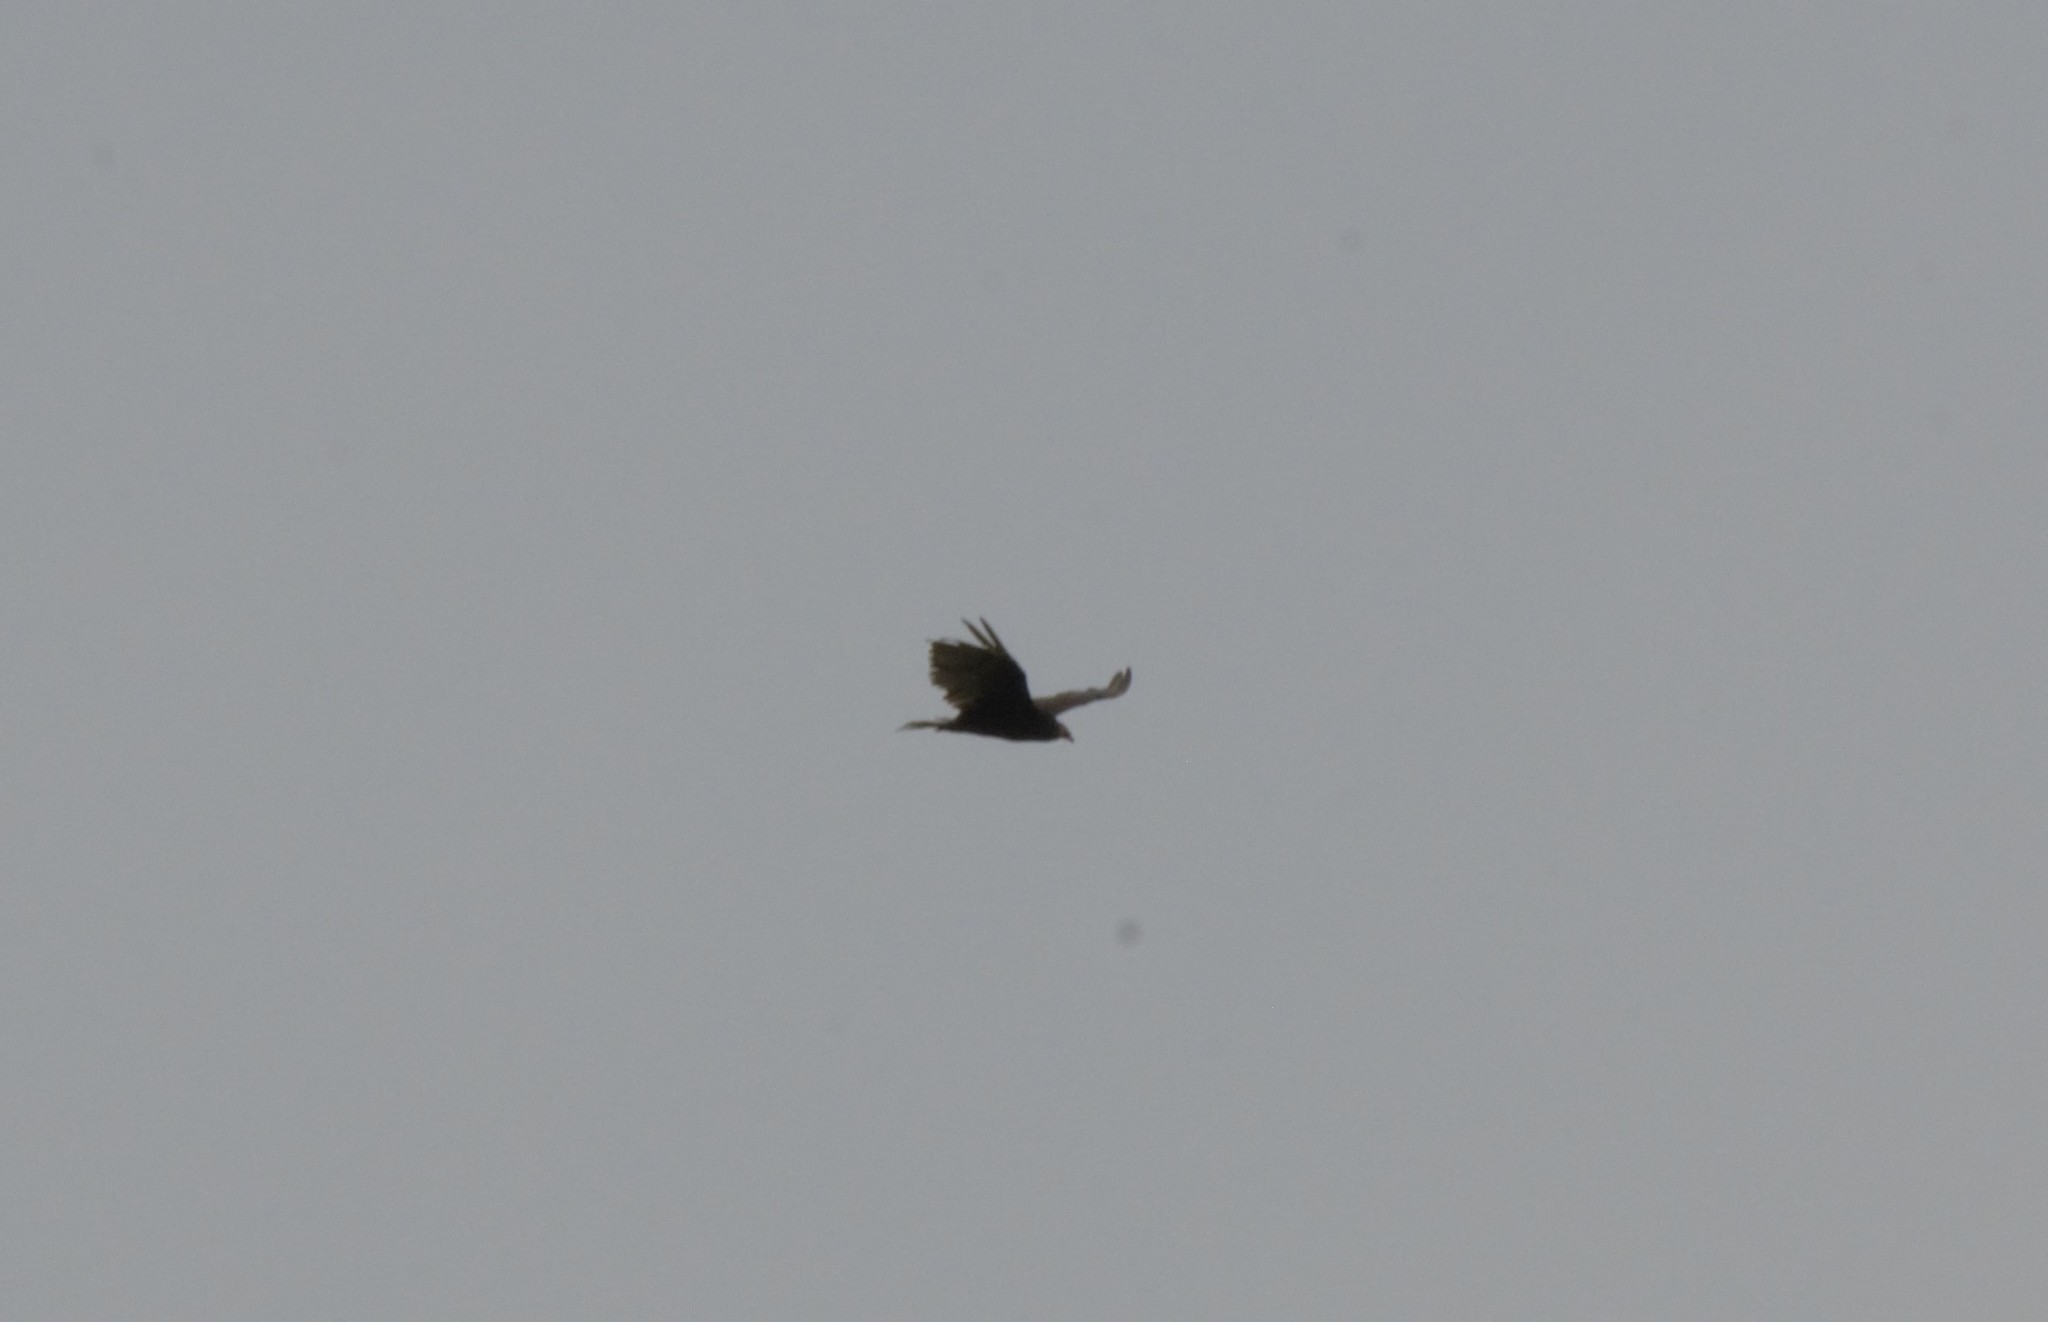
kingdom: Animalia
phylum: Chordata
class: Aves
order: Accipitriformes
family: Cathartidae
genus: Cathartes
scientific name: Cathartes aura
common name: Turkey vulture
